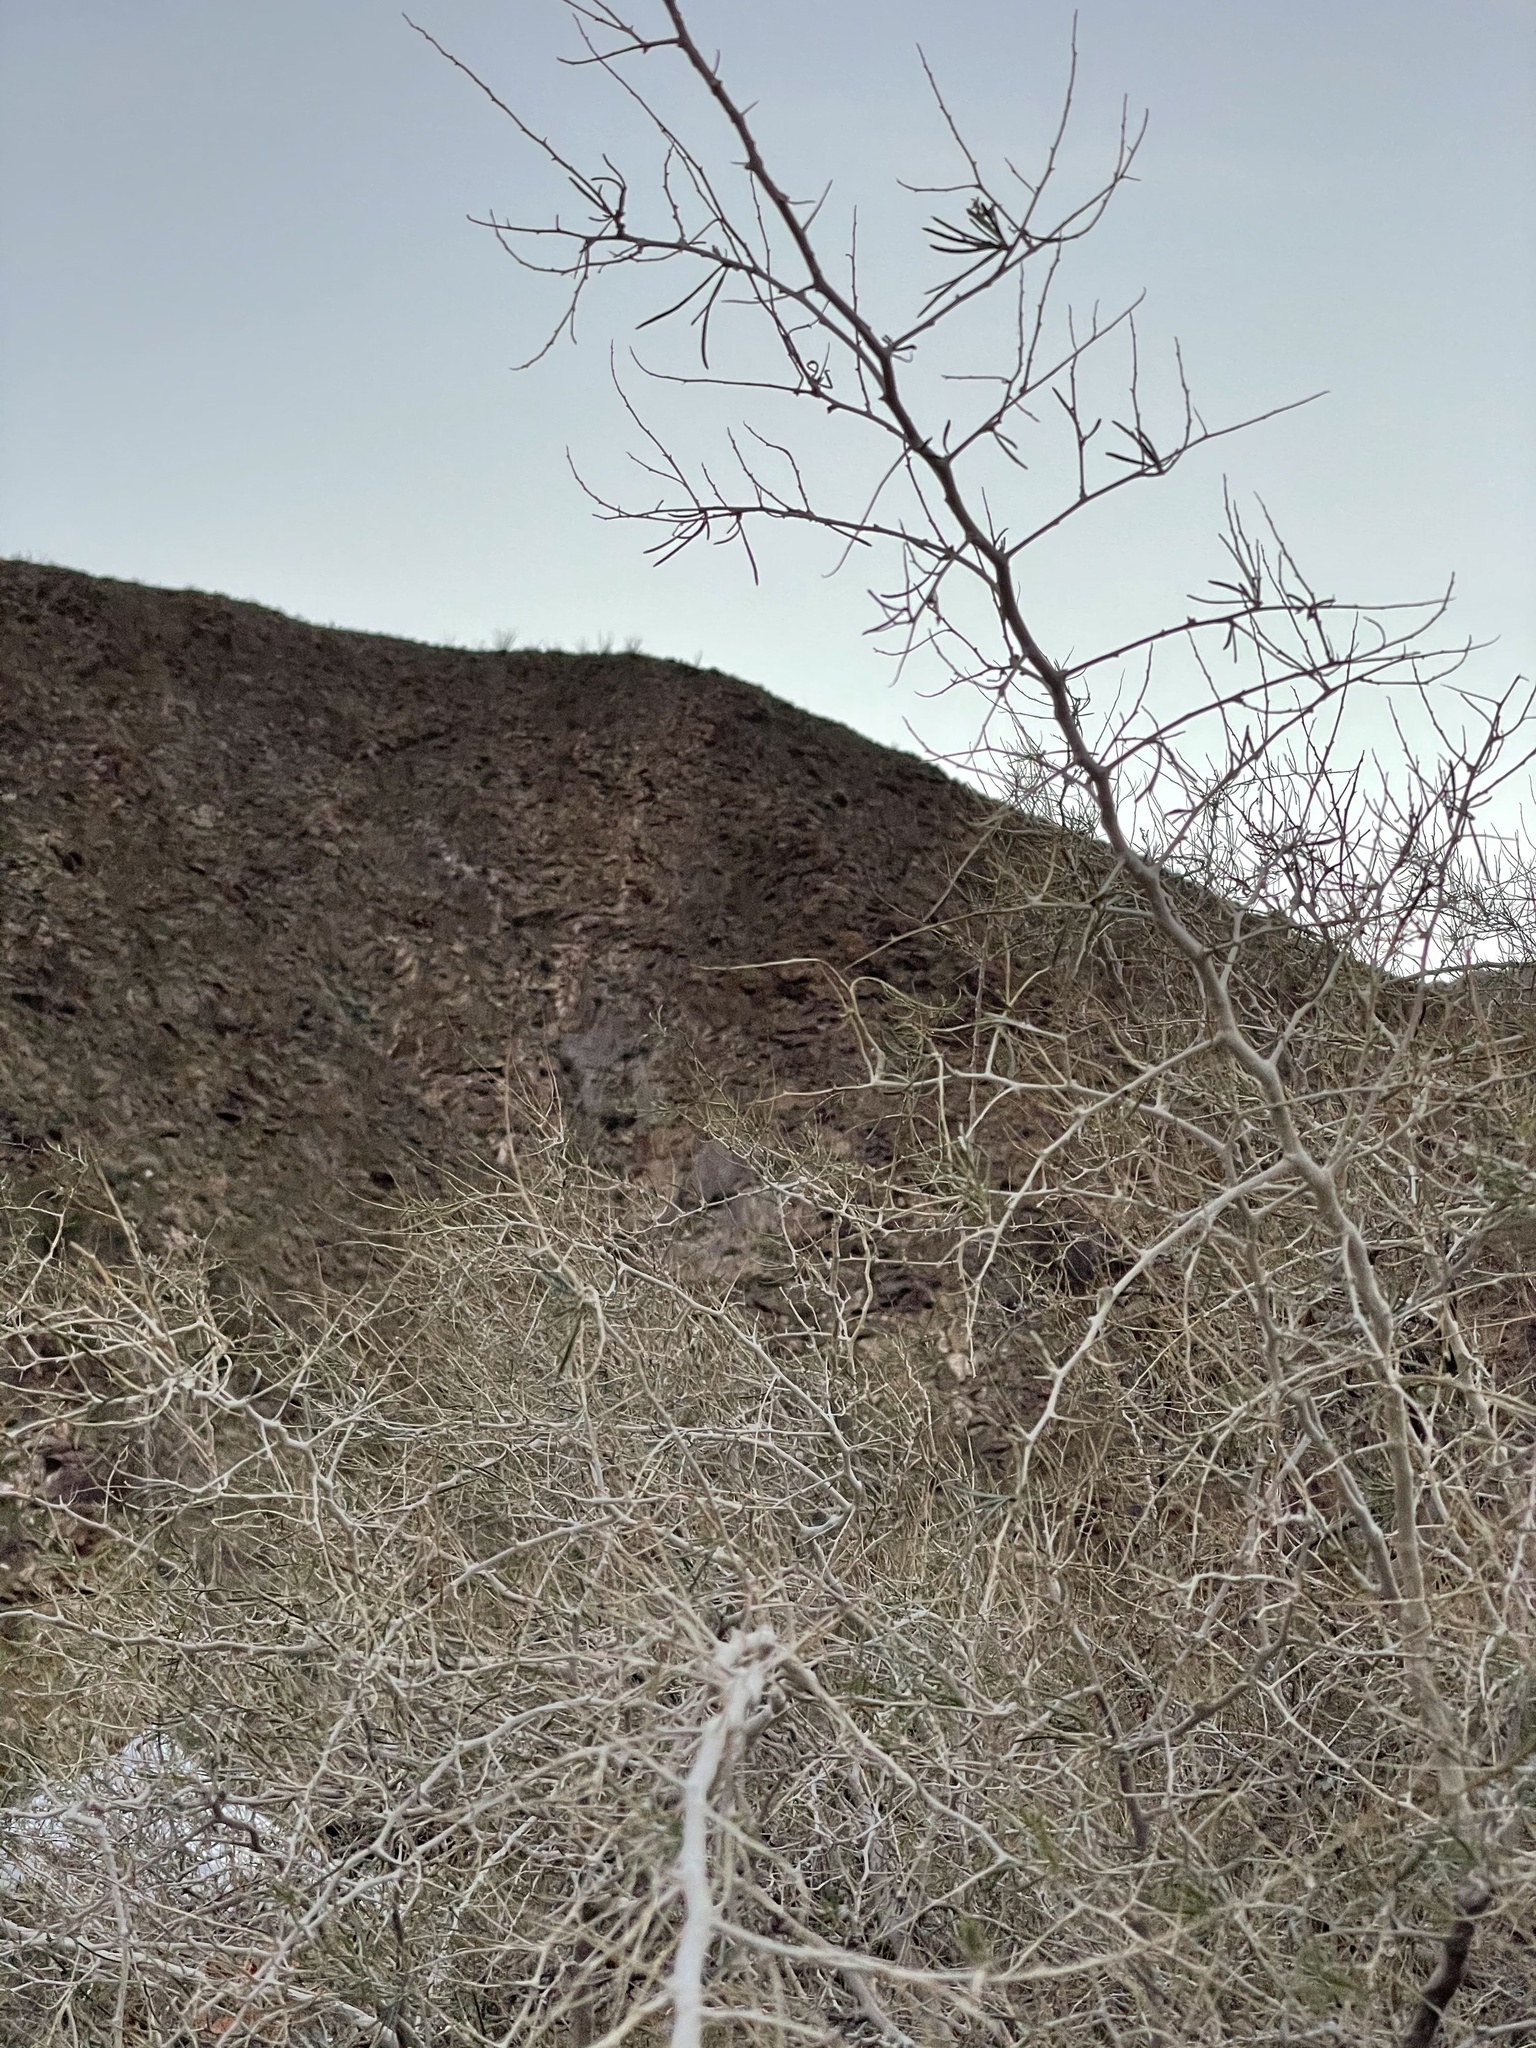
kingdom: Plantae
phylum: Tracheophyta
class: Magnoliopsida
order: Fabales
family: Fabaceae
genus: Psorothamnus
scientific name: Psorothamnus schottii
